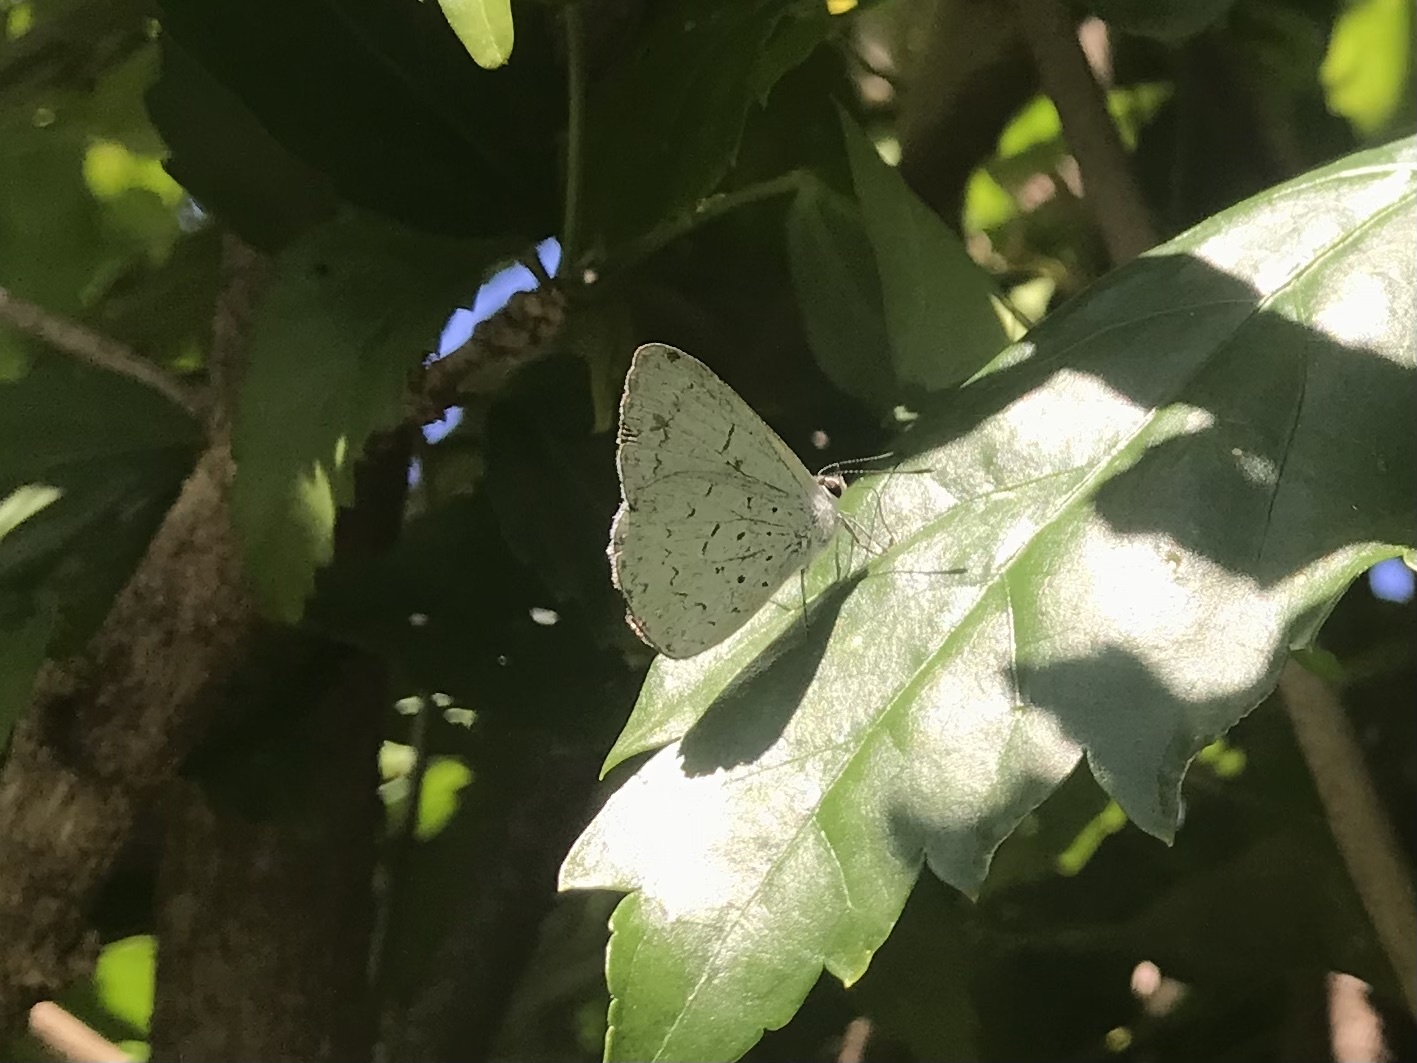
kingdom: Animalia
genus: Eirmocides
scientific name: Eirmocides
